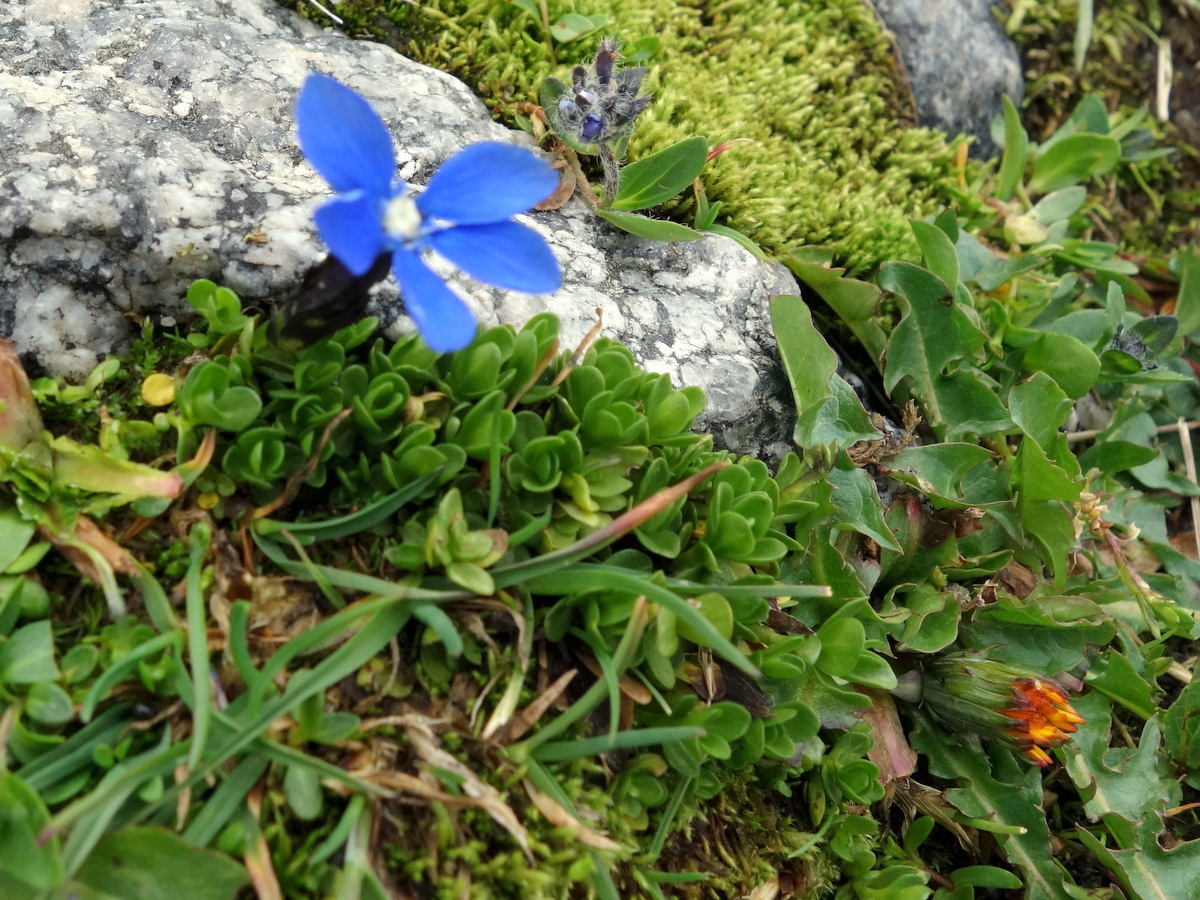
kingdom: Plantae
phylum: Tracheophyta
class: Magnoliopsida
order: Gentianales
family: Gentianaceae
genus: Gentiana
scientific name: Gentiana bavarica
